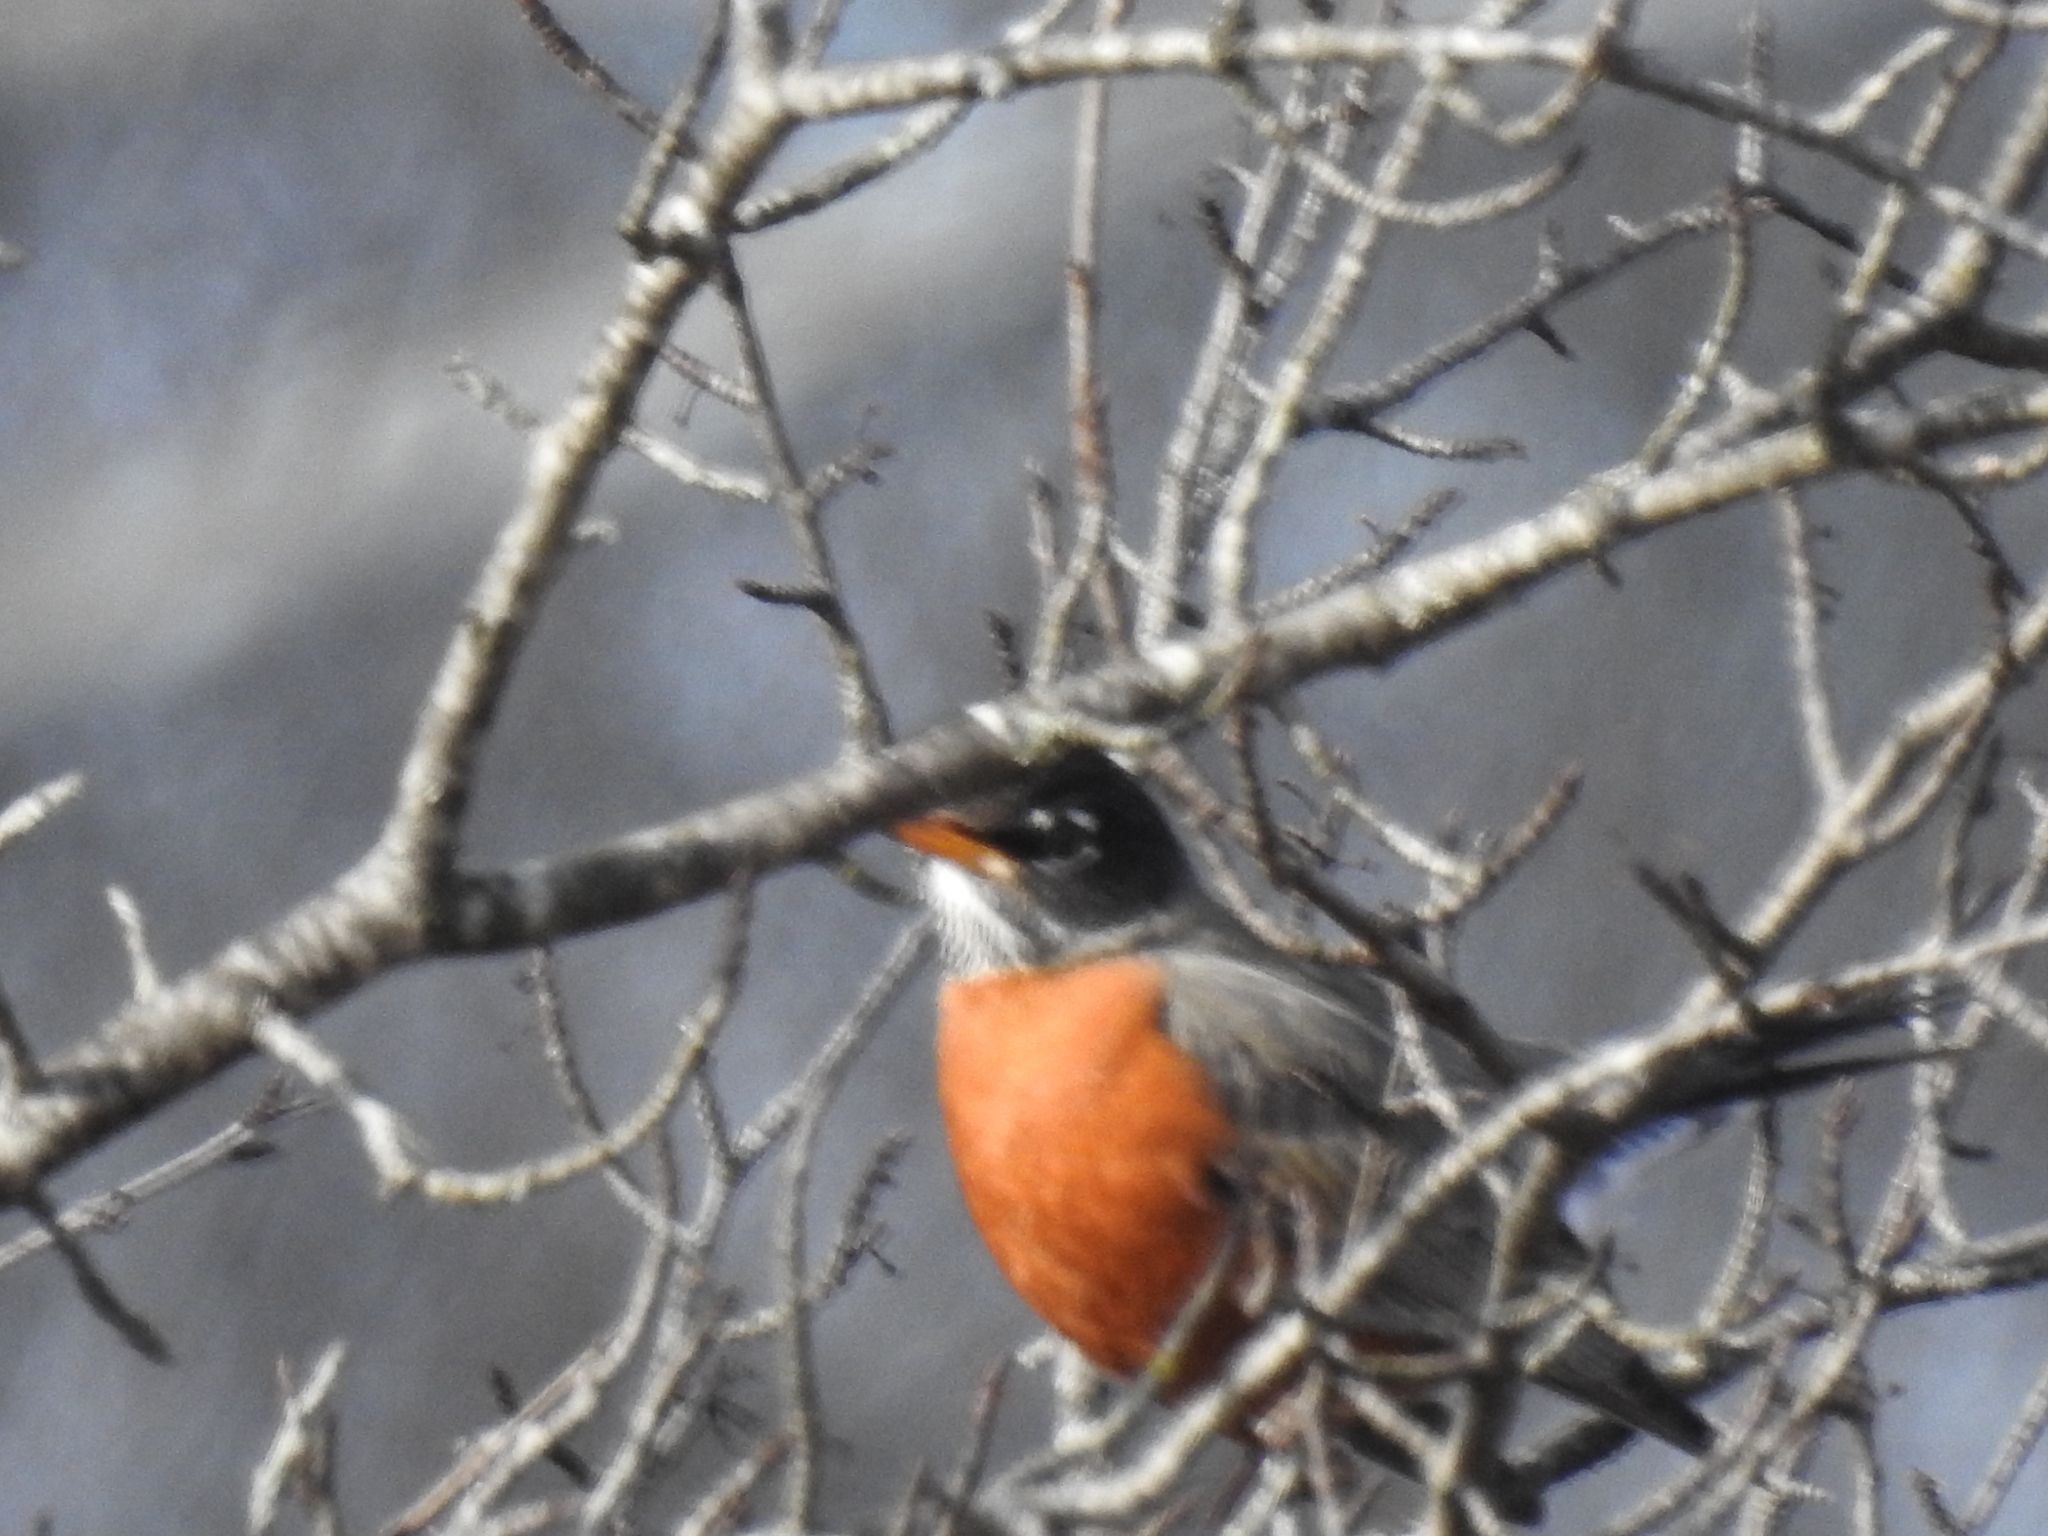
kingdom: Animalia
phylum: Chordata
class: Aves
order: Passeriformes
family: Turdidae
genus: Turdus
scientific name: Turdus migratorius
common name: American robin
